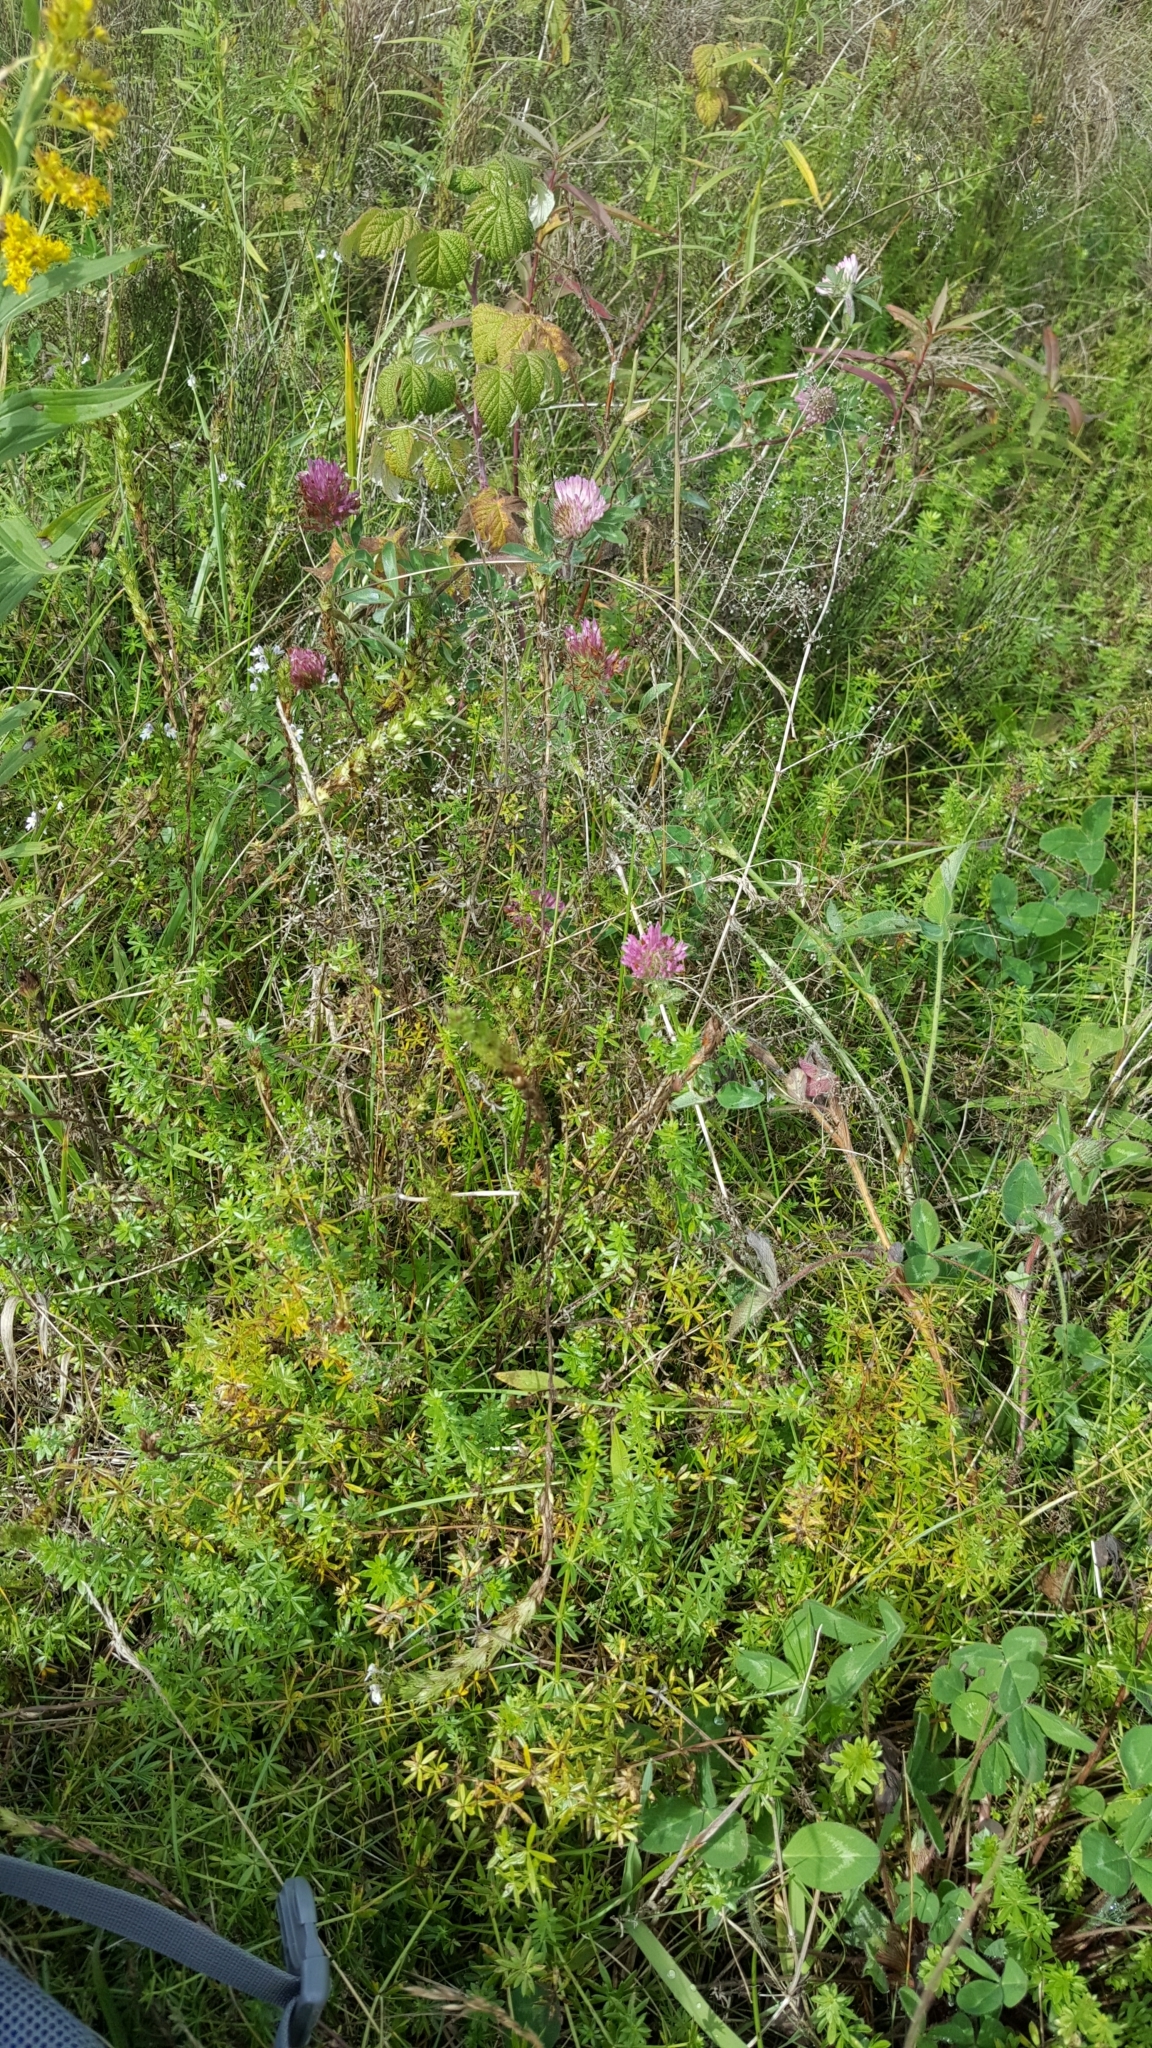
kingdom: Plantae
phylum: Tracheophyta
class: Magnoliopsida
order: Fabales
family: Fabaceae
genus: Trifolium
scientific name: Trifolium pratense
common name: Red clover
